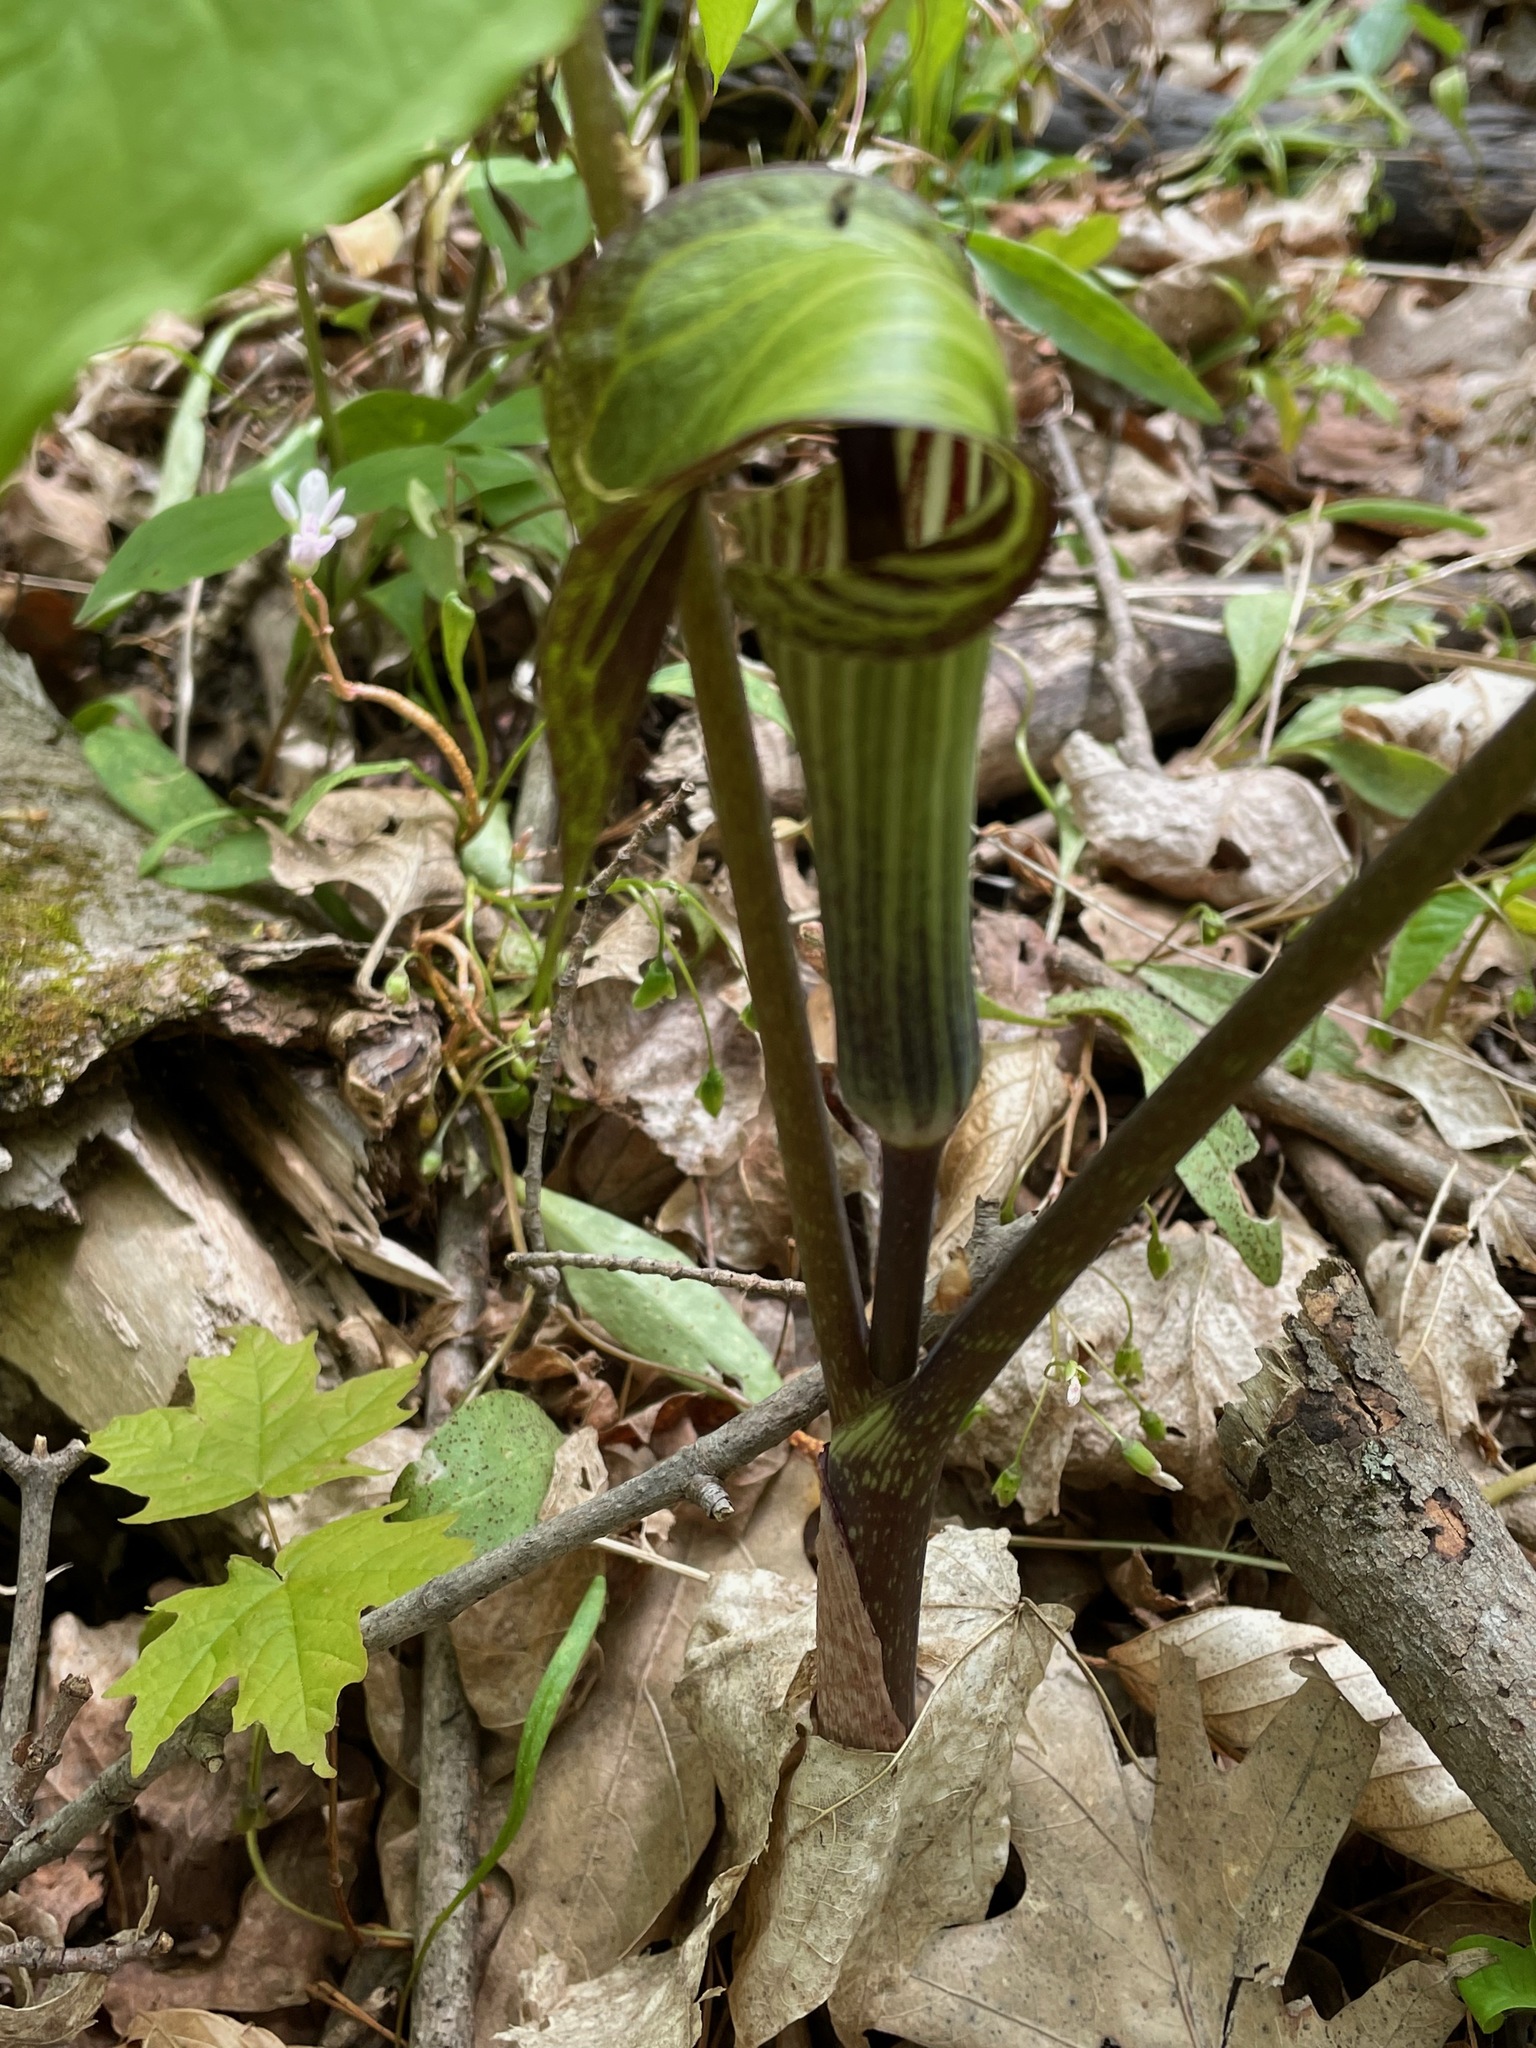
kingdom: Plantae
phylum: Tracheophyta
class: Liliopsida
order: Alismatales
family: Araceae
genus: Arisaema
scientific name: Arisaema triphyllum
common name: Jack-in-the-pulpit
